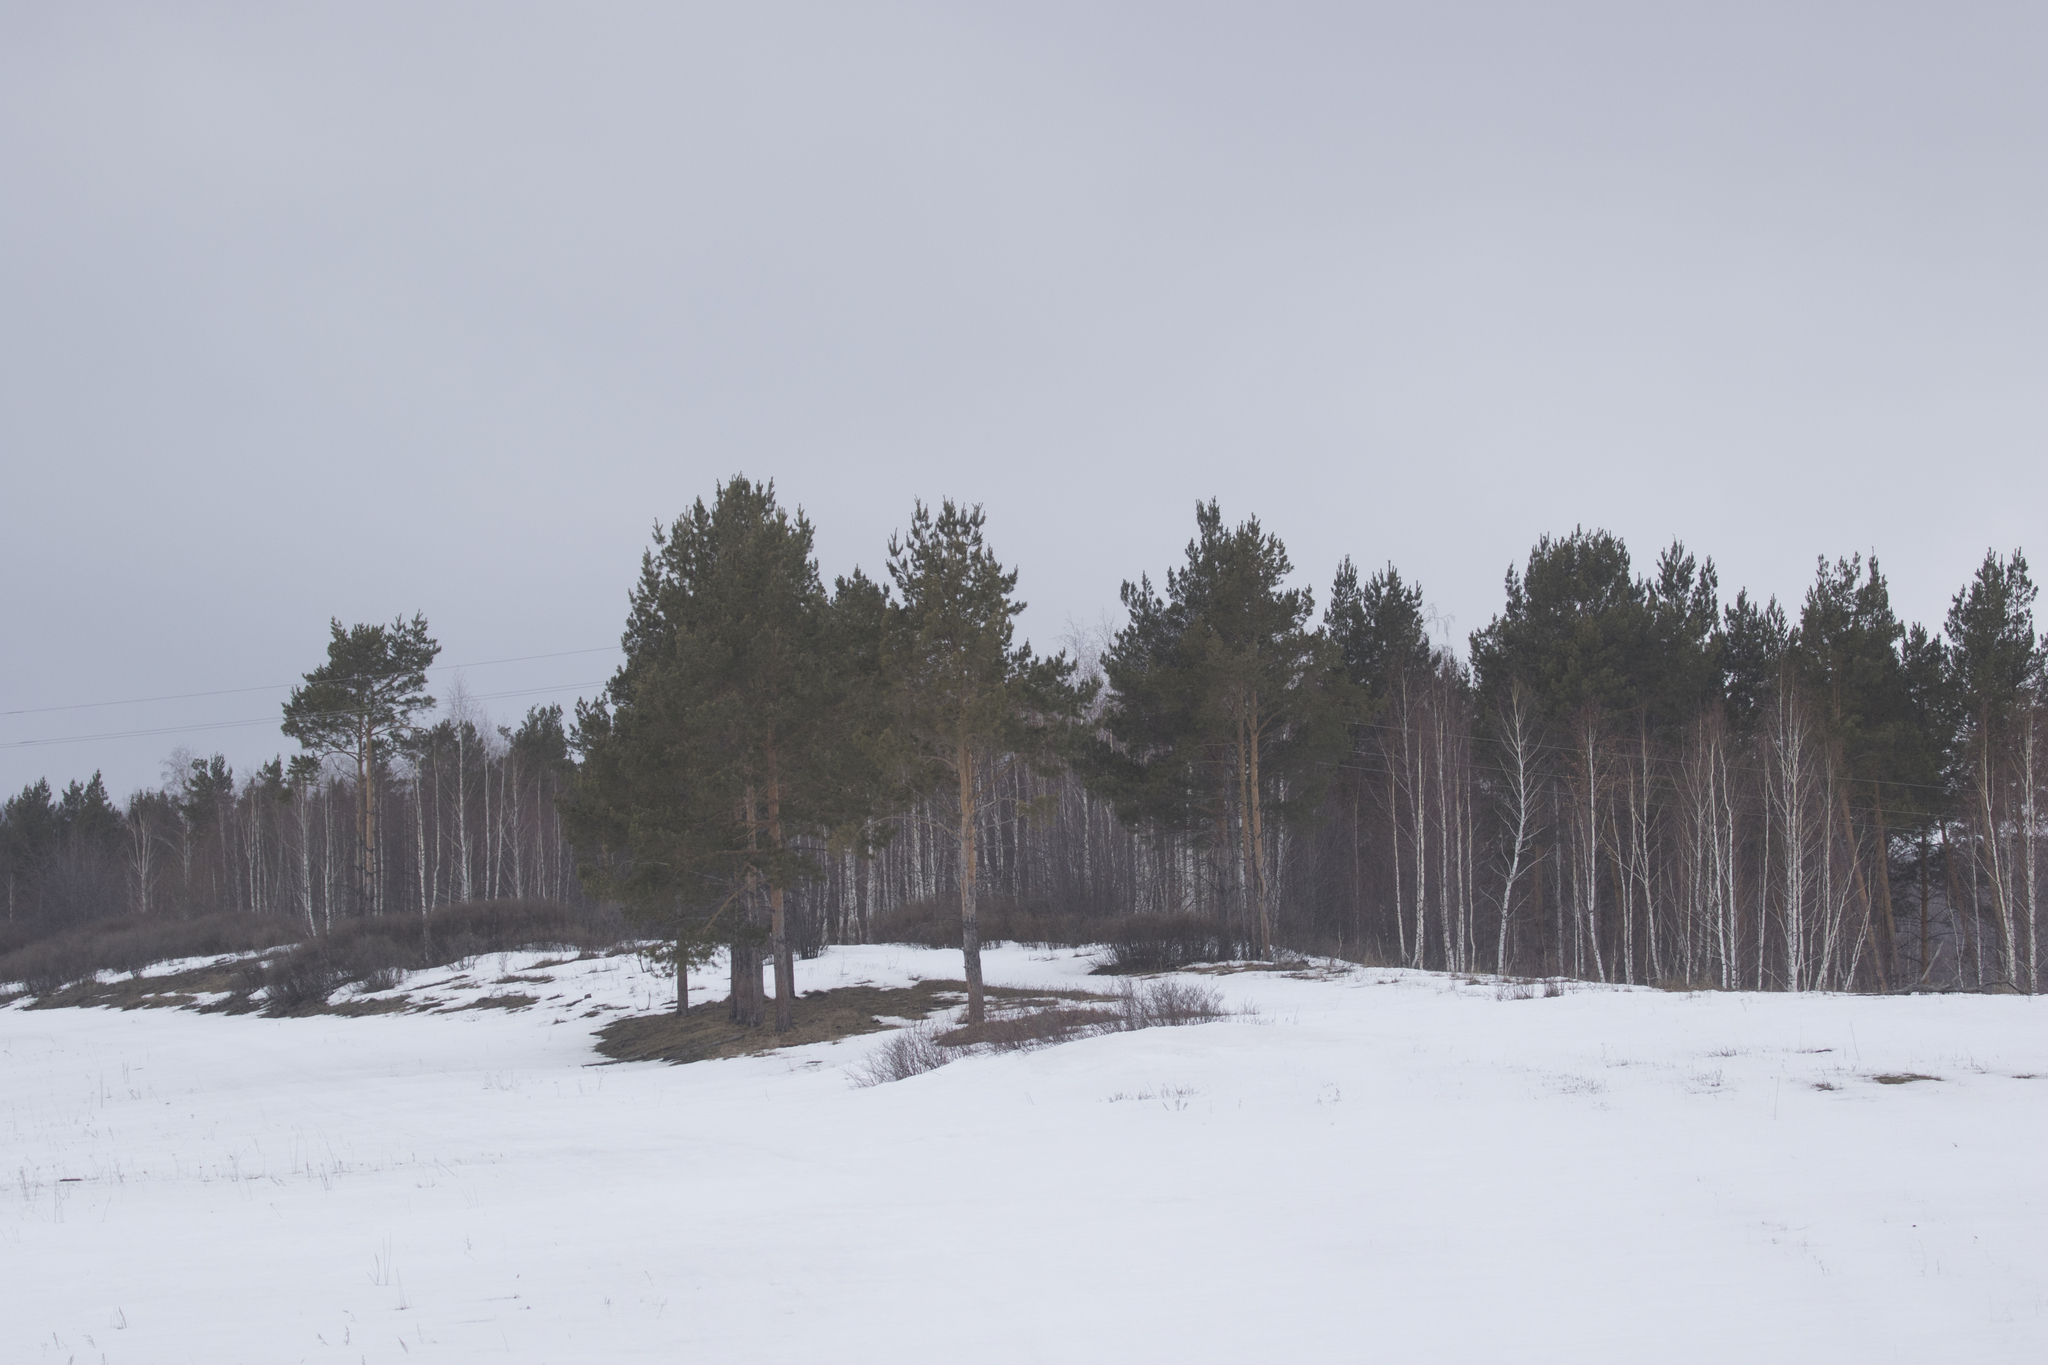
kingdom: Plantae
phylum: Tracheophyta
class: Pinopsida
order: Pinales
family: Pinaceae
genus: Pinus
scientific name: Pinus sylvestris
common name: Scots pine
